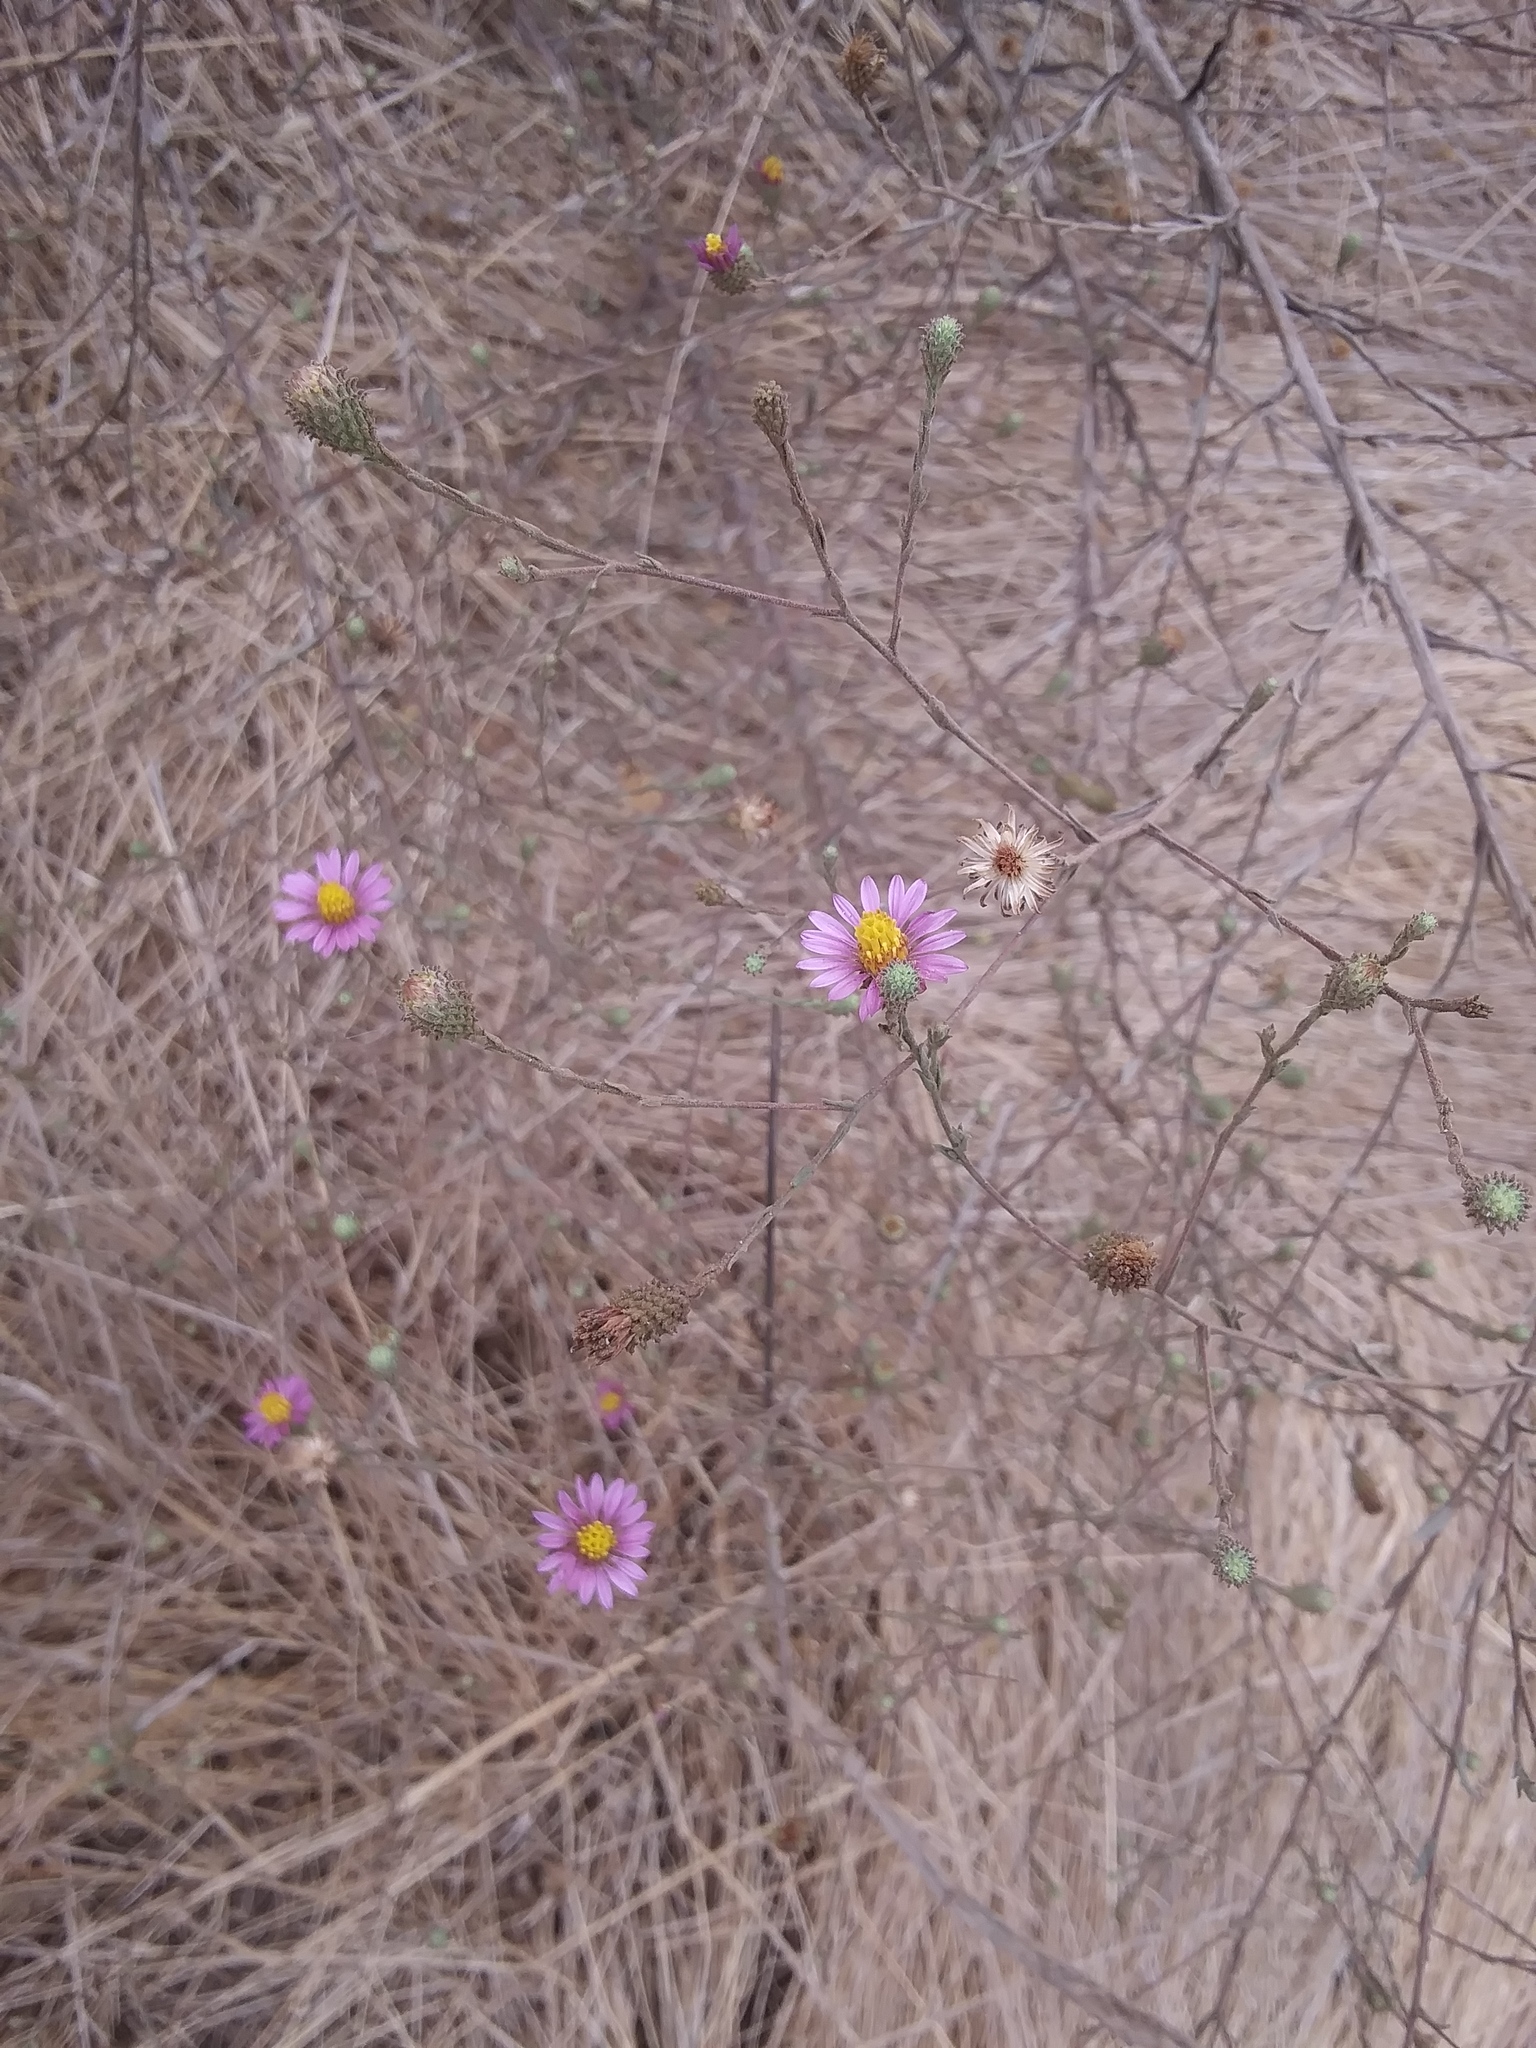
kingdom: Plantae
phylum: Tracheophyta
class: Magnoliopsida
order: Asterales
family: Asteraceae
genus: Corethrogyne
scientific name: Corethrogyne filaginifolia
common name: Sand-aster
